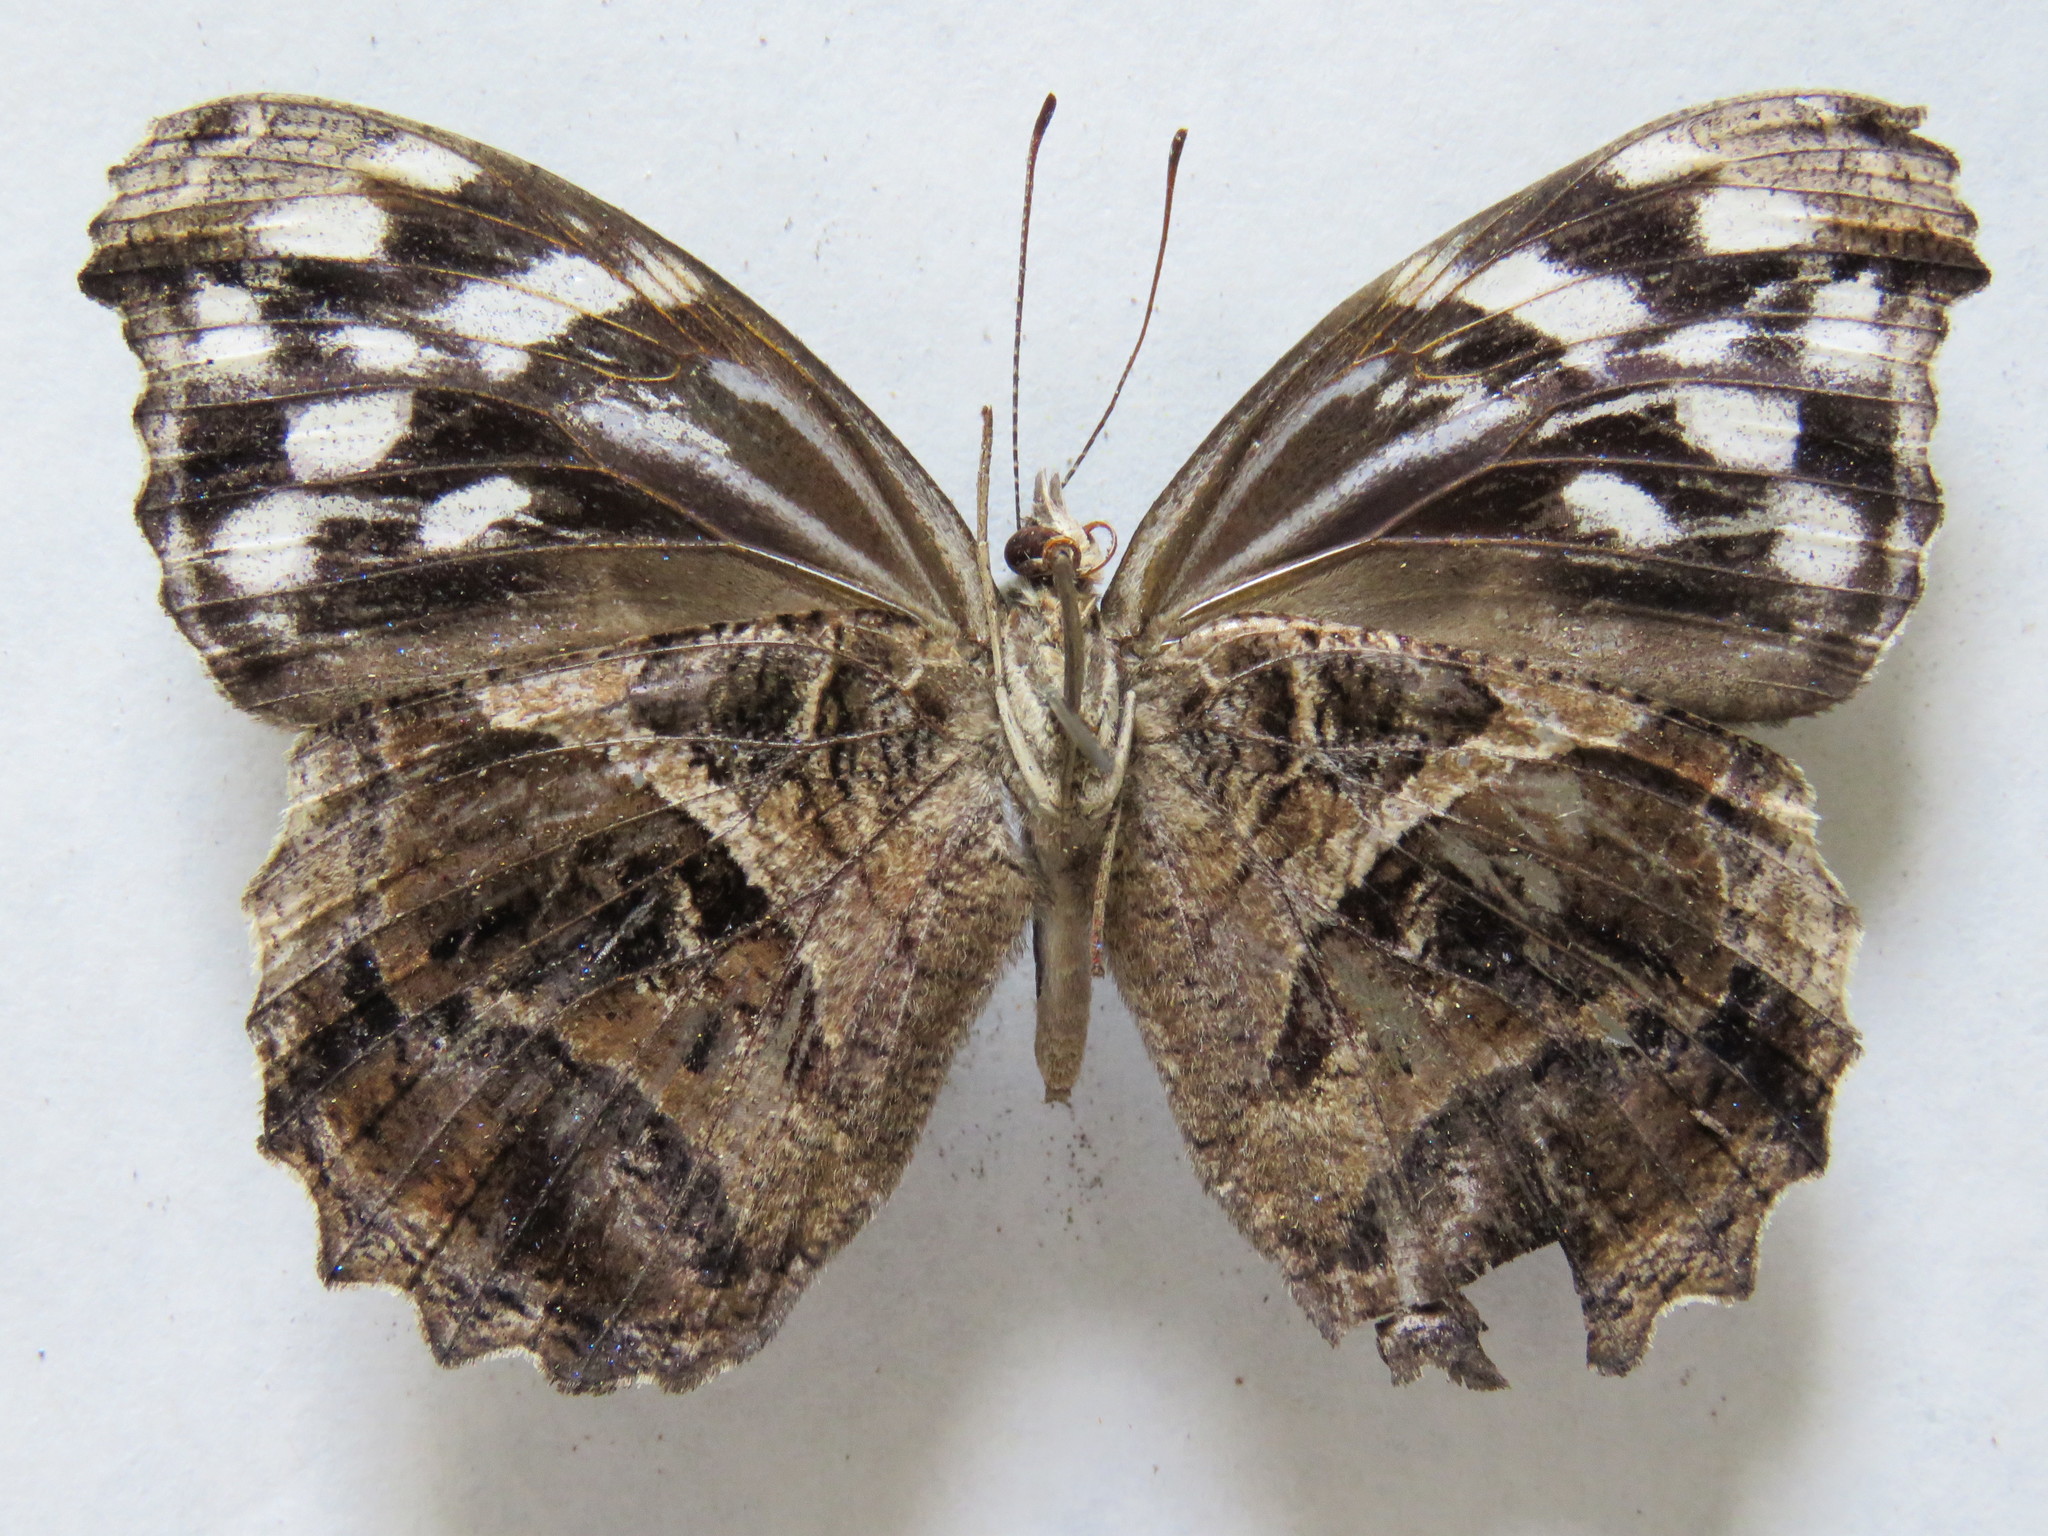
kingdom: Animalia
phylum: Arthropoda
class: Insecta
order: Lepidoptera
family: Nymphalidae
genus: Myscelia
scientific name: Myscelia ethusa
